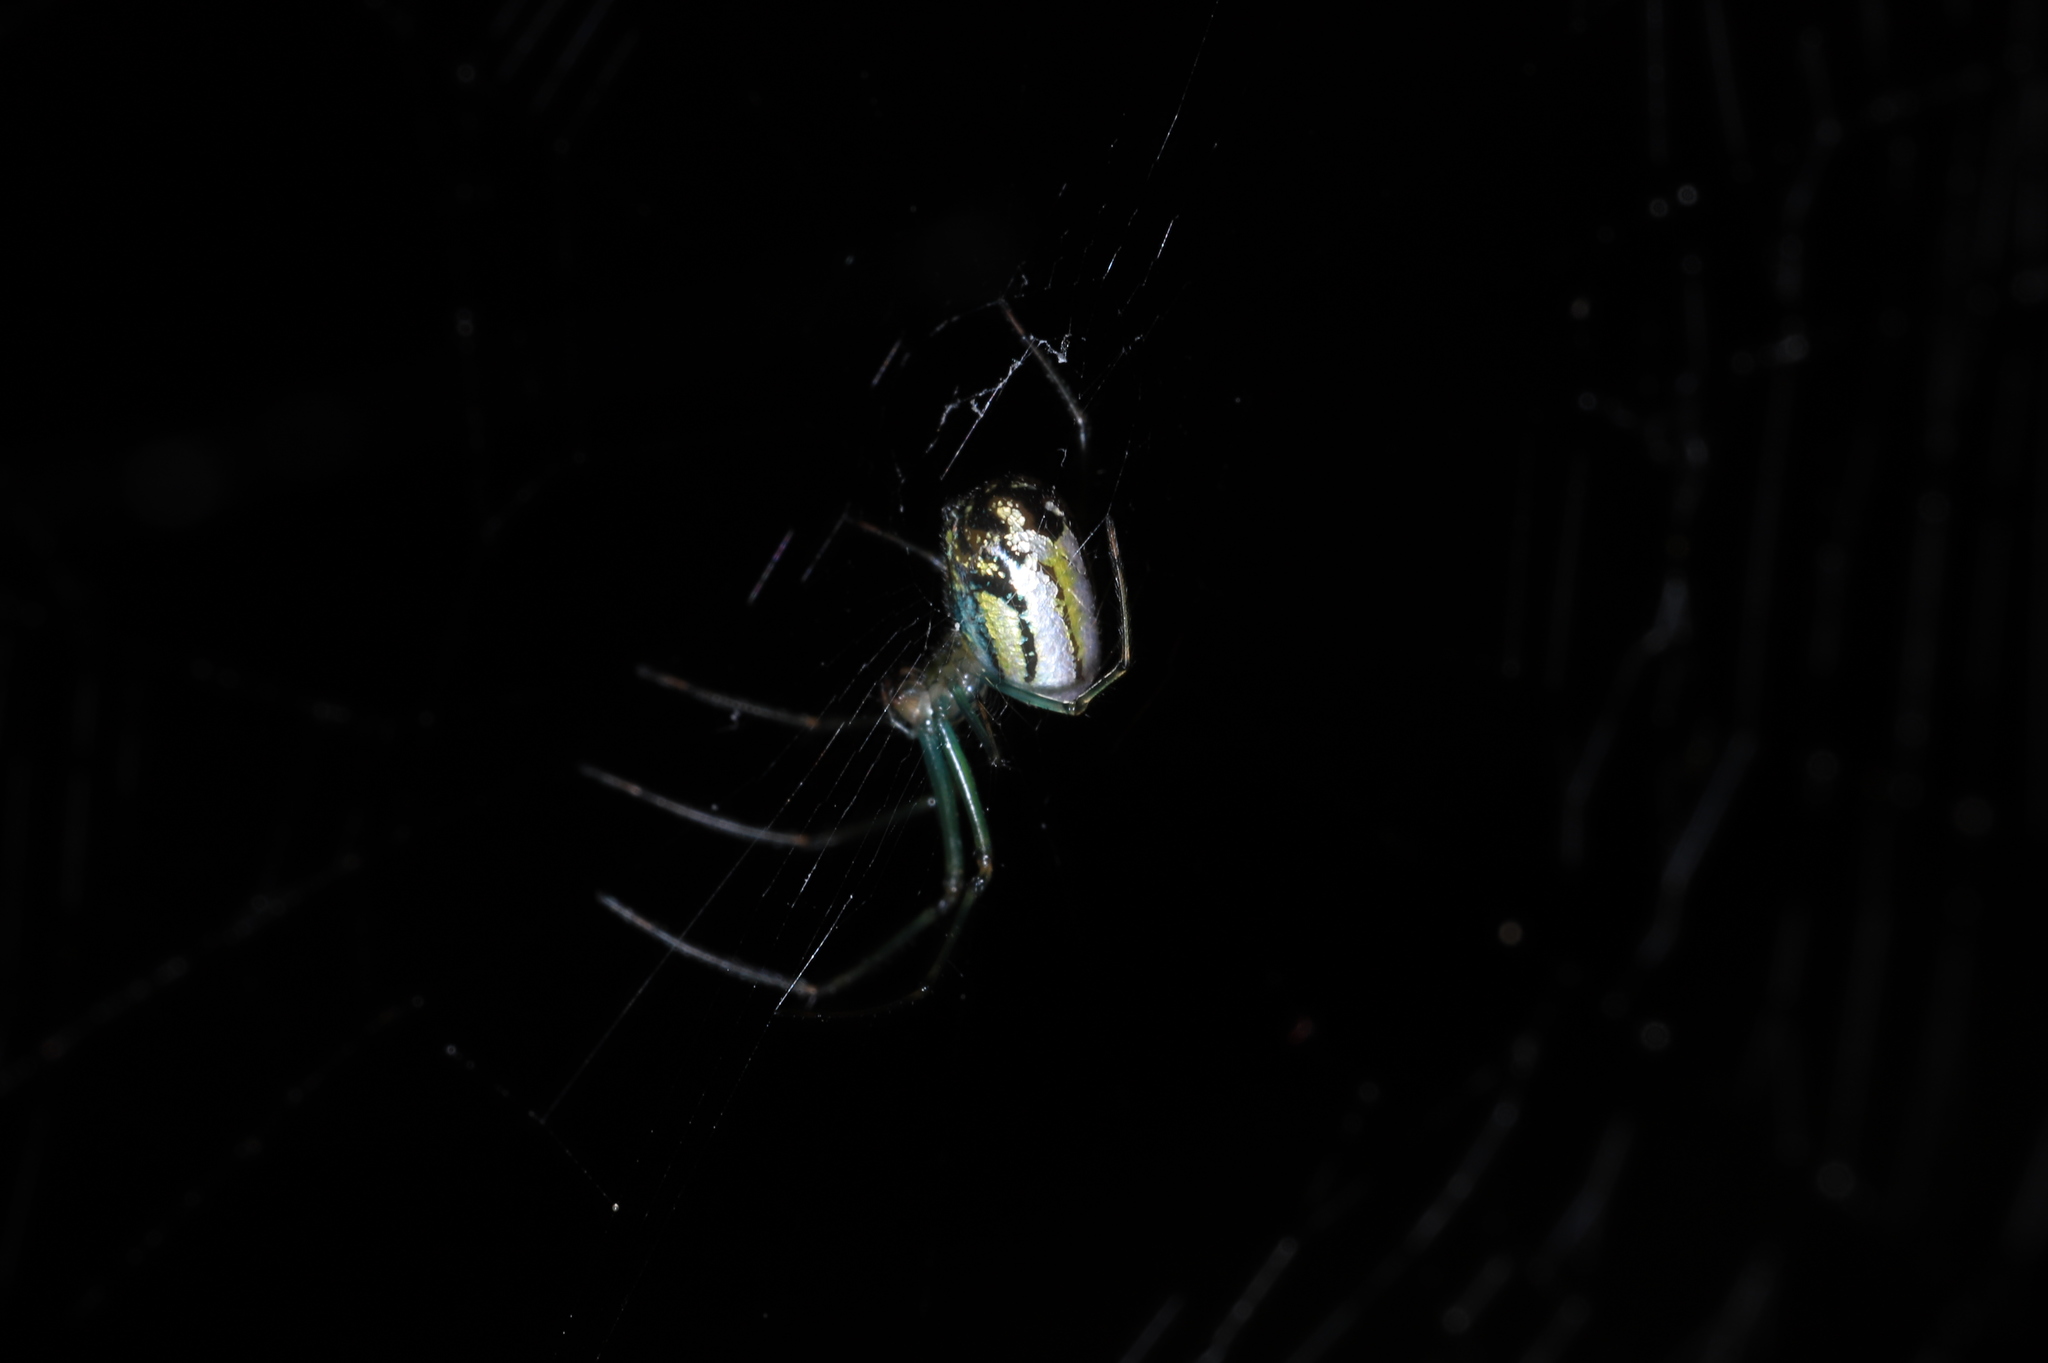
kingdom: Animalia
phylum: Arthropoda
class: Arachnida
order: Araneae
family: Tetragnathidae
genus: Leucauge
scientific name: Leucauge venusta
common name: Longjawed orb weavers
